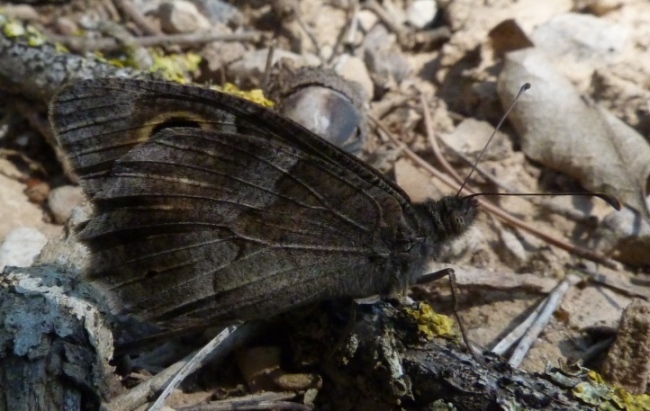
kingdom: Animalia
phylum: Arthropoda
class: Insecta
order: Lepidoptera
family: Nymphalidae
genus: Hipparchia
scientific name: Hipparchia statilinus
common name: Tree grayling
